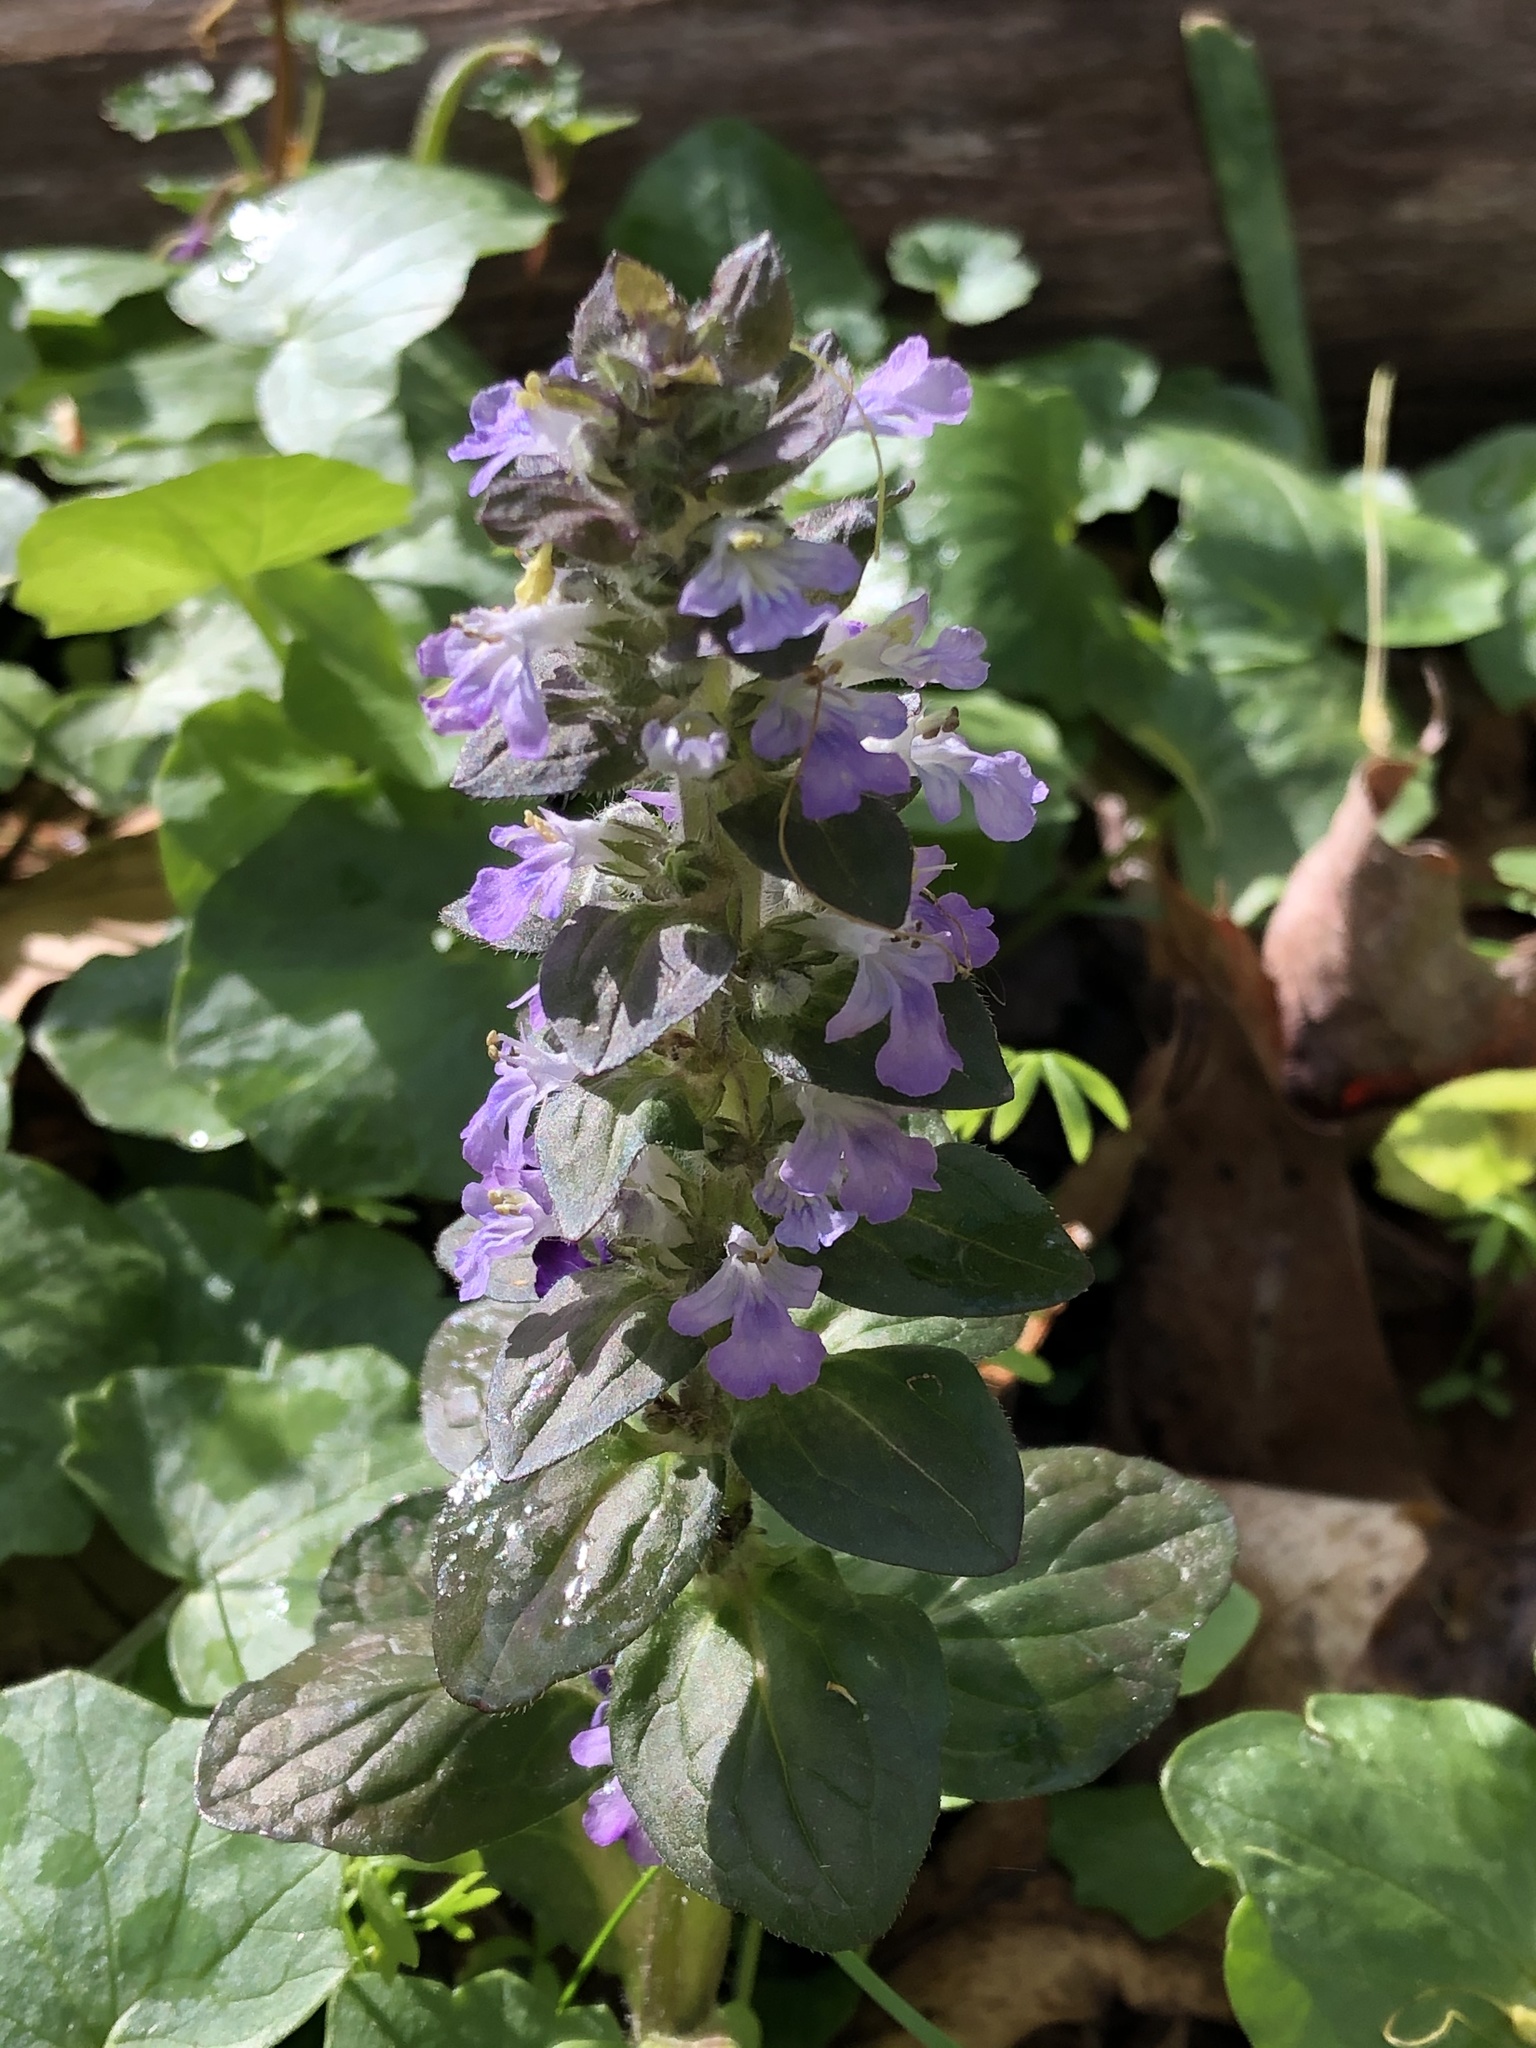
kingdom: Plantae
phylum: Tracheophyta
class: Magnoliopsida
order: Lamiales
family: Lamiaceae
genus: Ajuga
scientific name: Ajuga reptans
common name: Bugle
